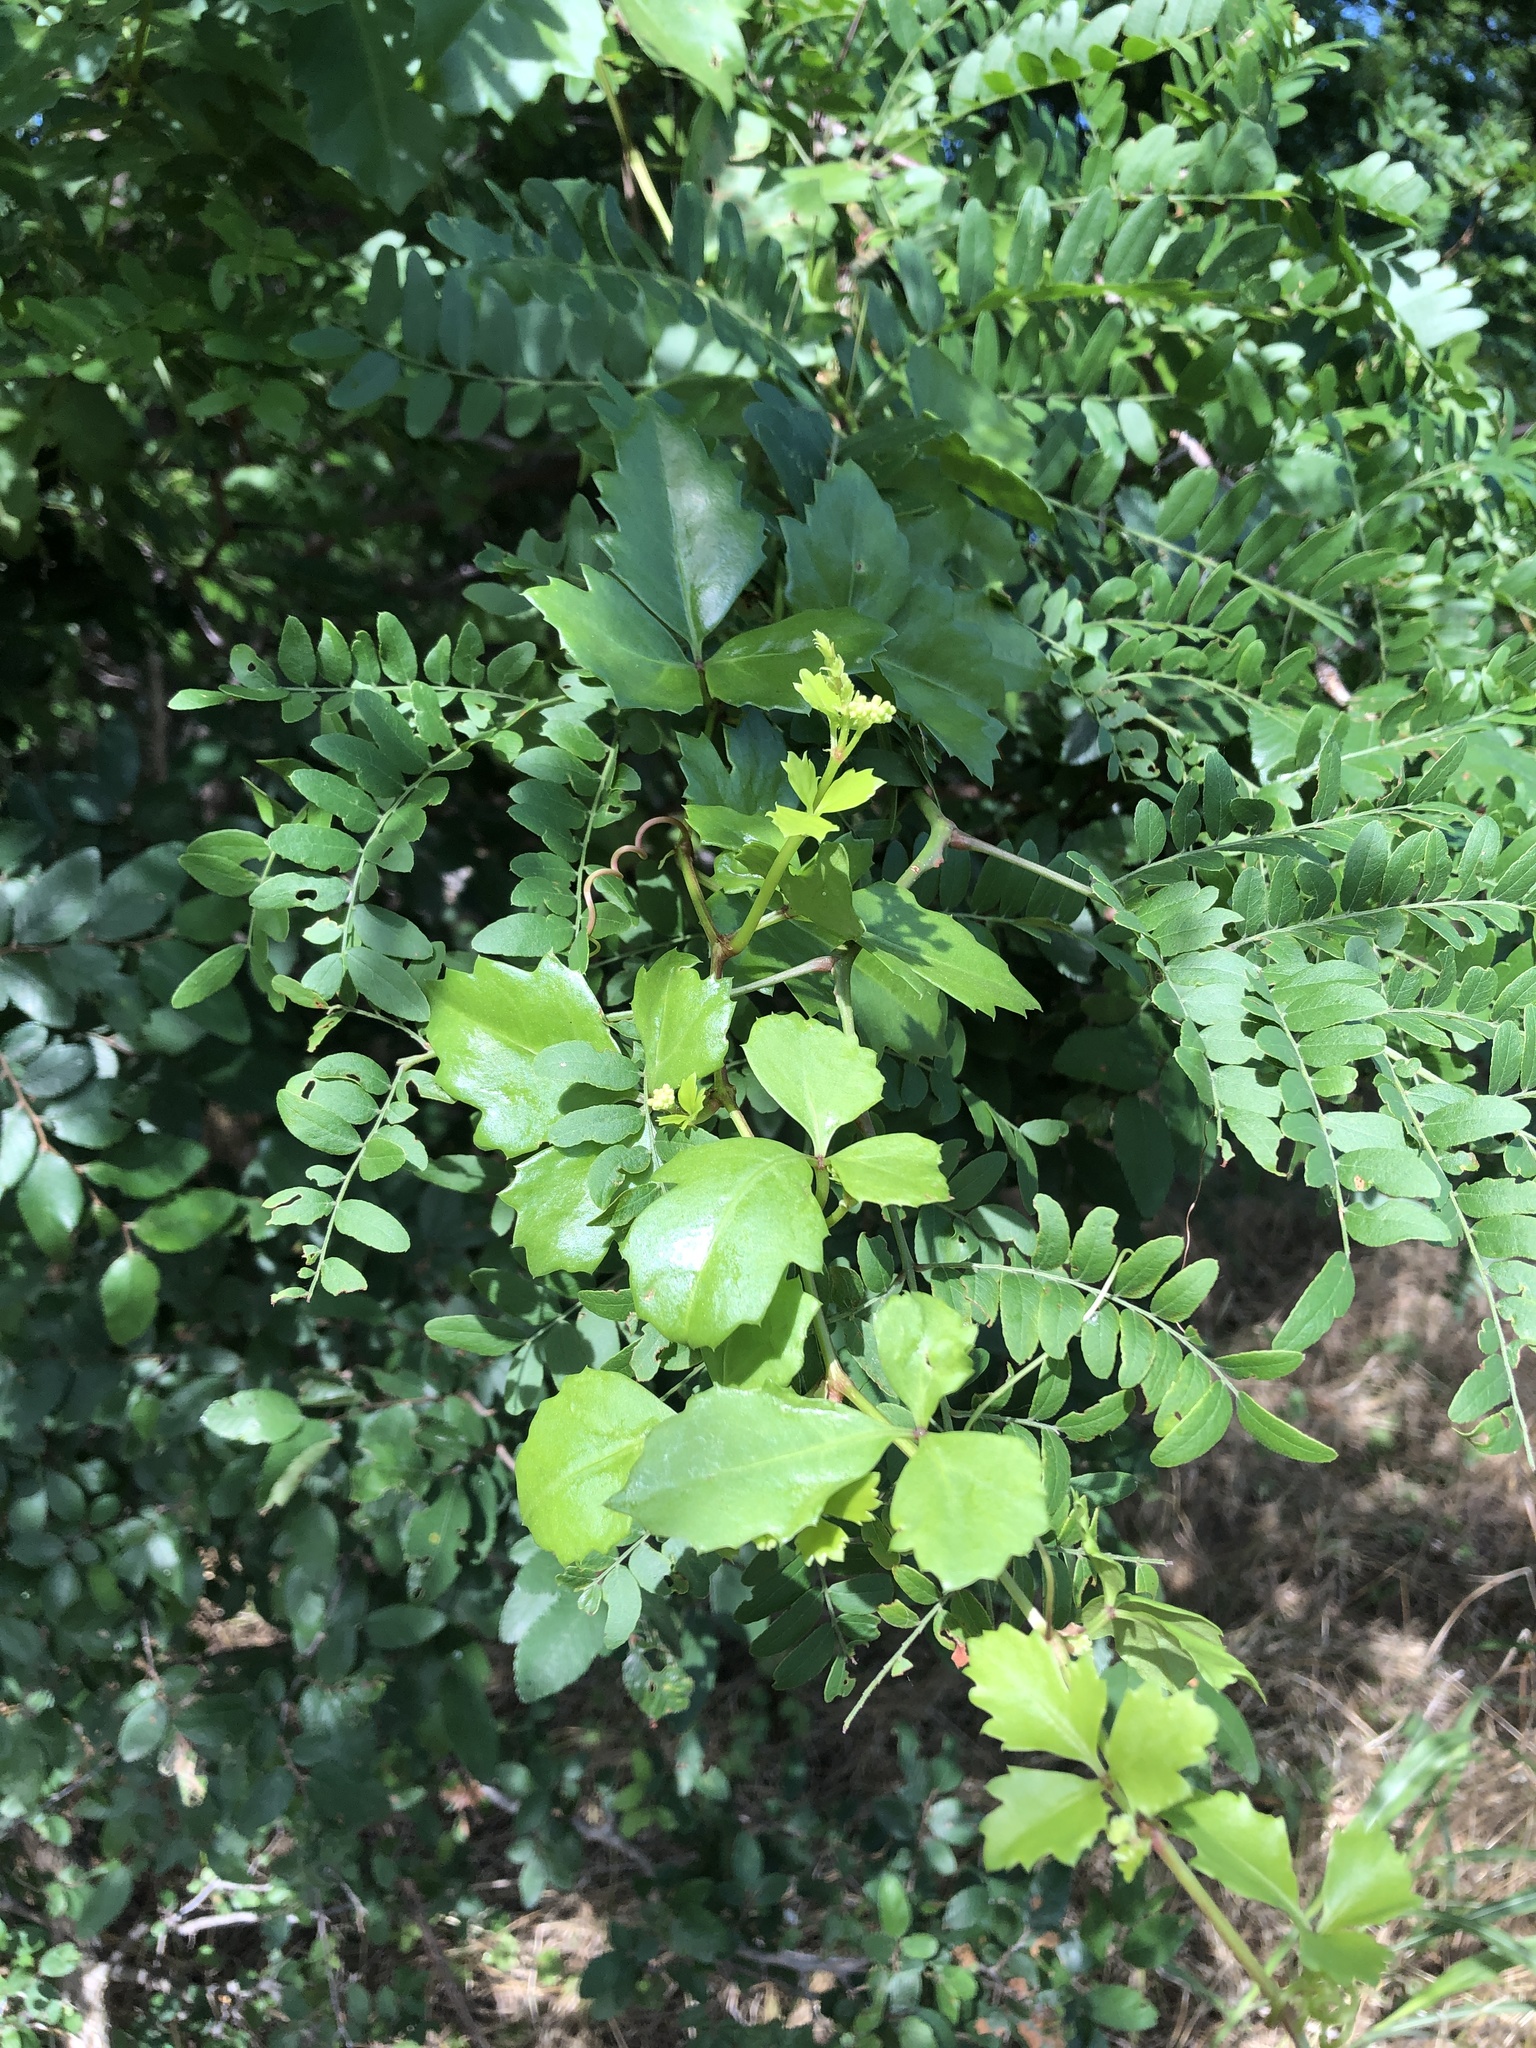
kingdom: Plantae
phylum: Tracheophyta
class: Magnoliopsida
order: Vitales
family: Vitaceae
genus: Cissus
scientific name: Cissus trifoliata
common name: Vine-sorrel
